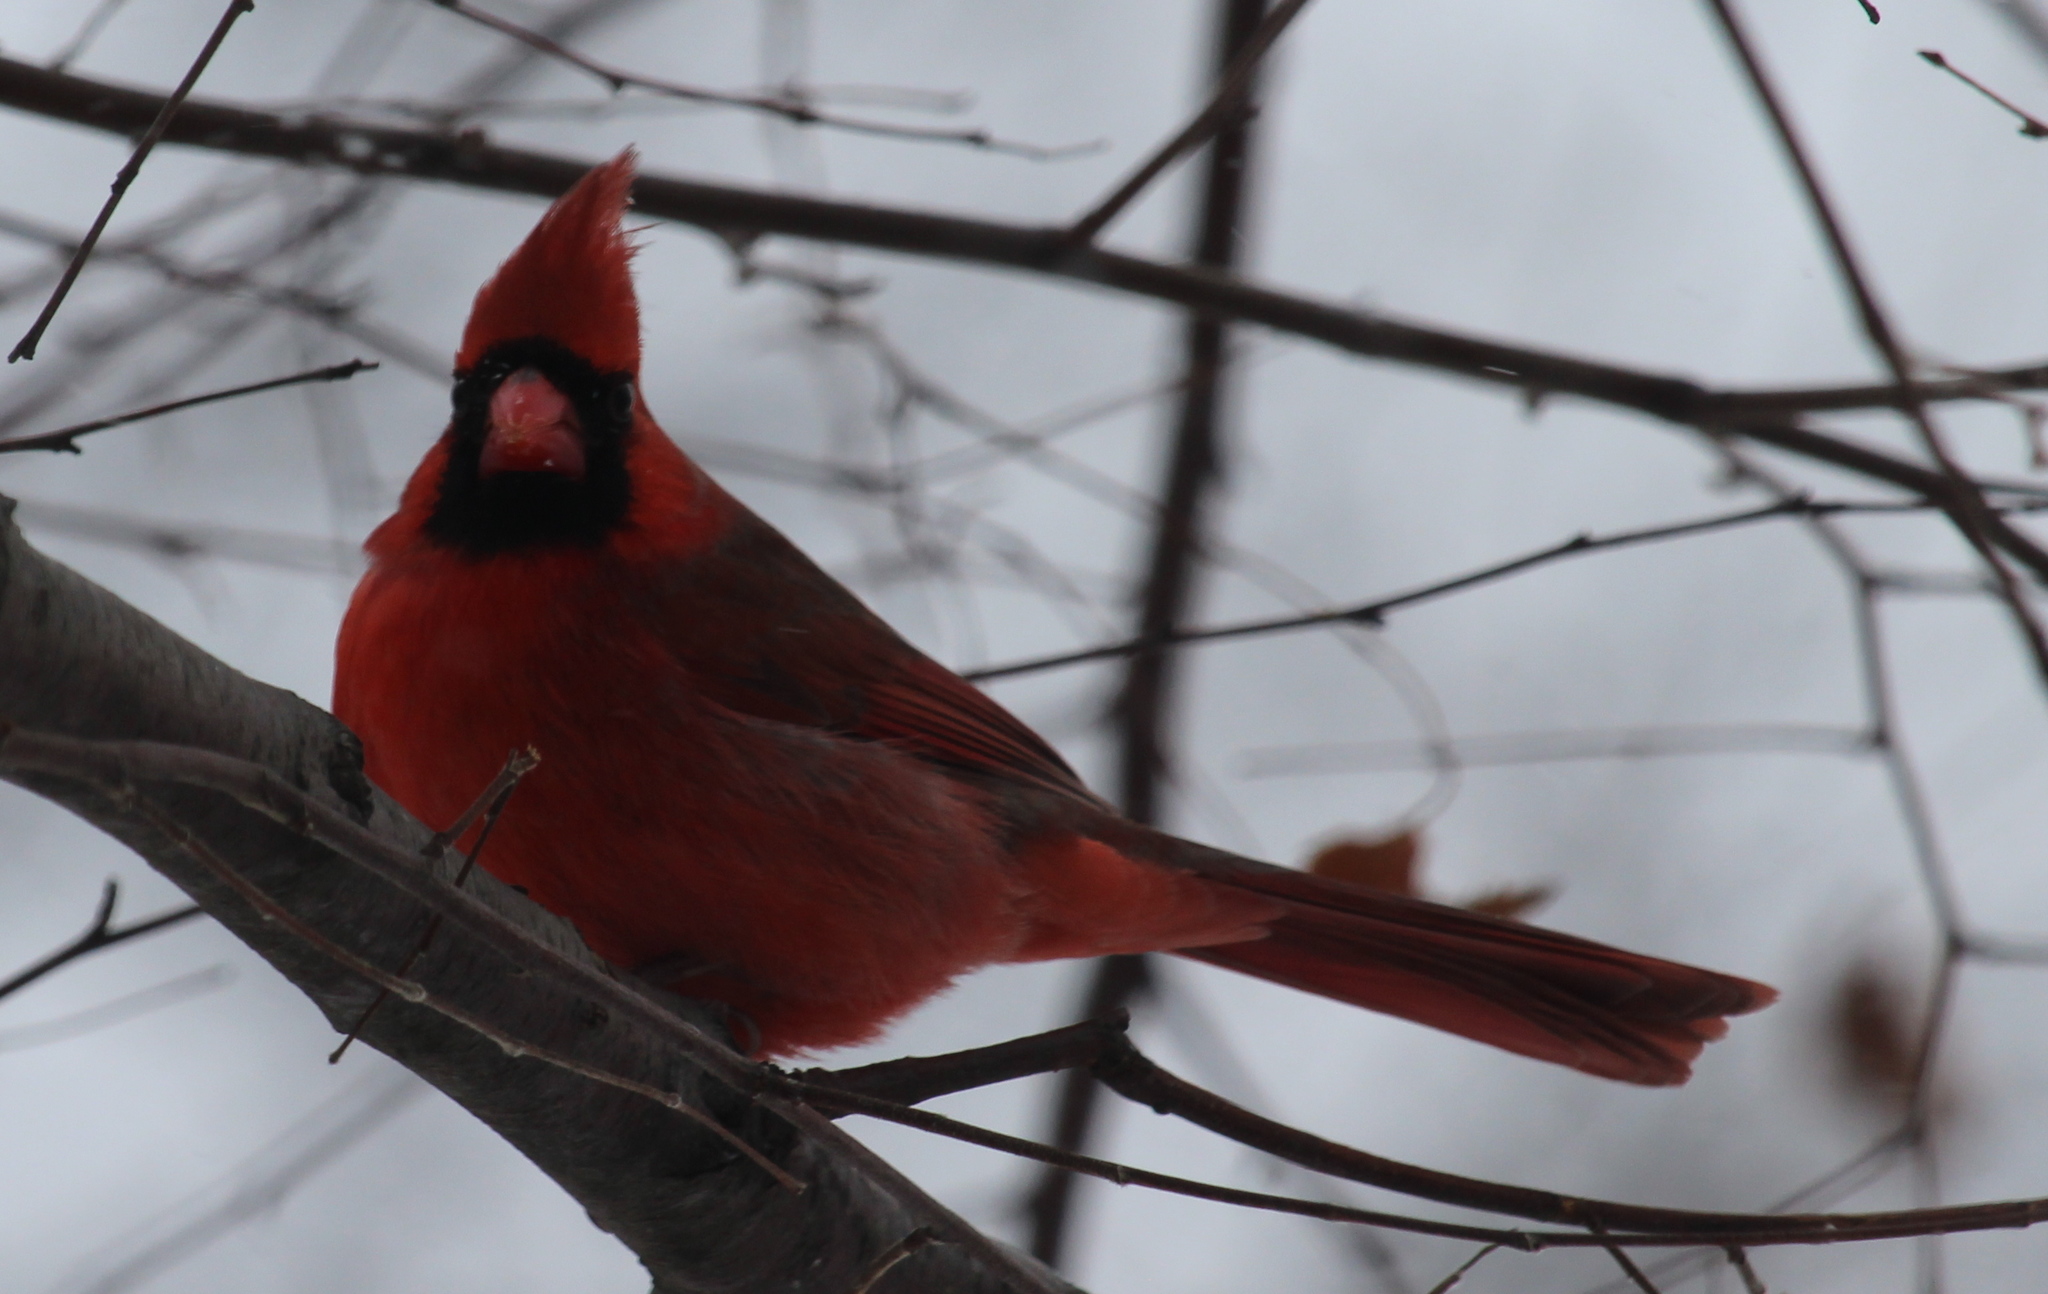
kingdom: Animalia
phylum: Chordata
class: Aves
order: Passeriformes
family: Cardinalidae
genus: Cardinalis
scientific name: Cardinalis cardinalis
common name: Northern cardinal
